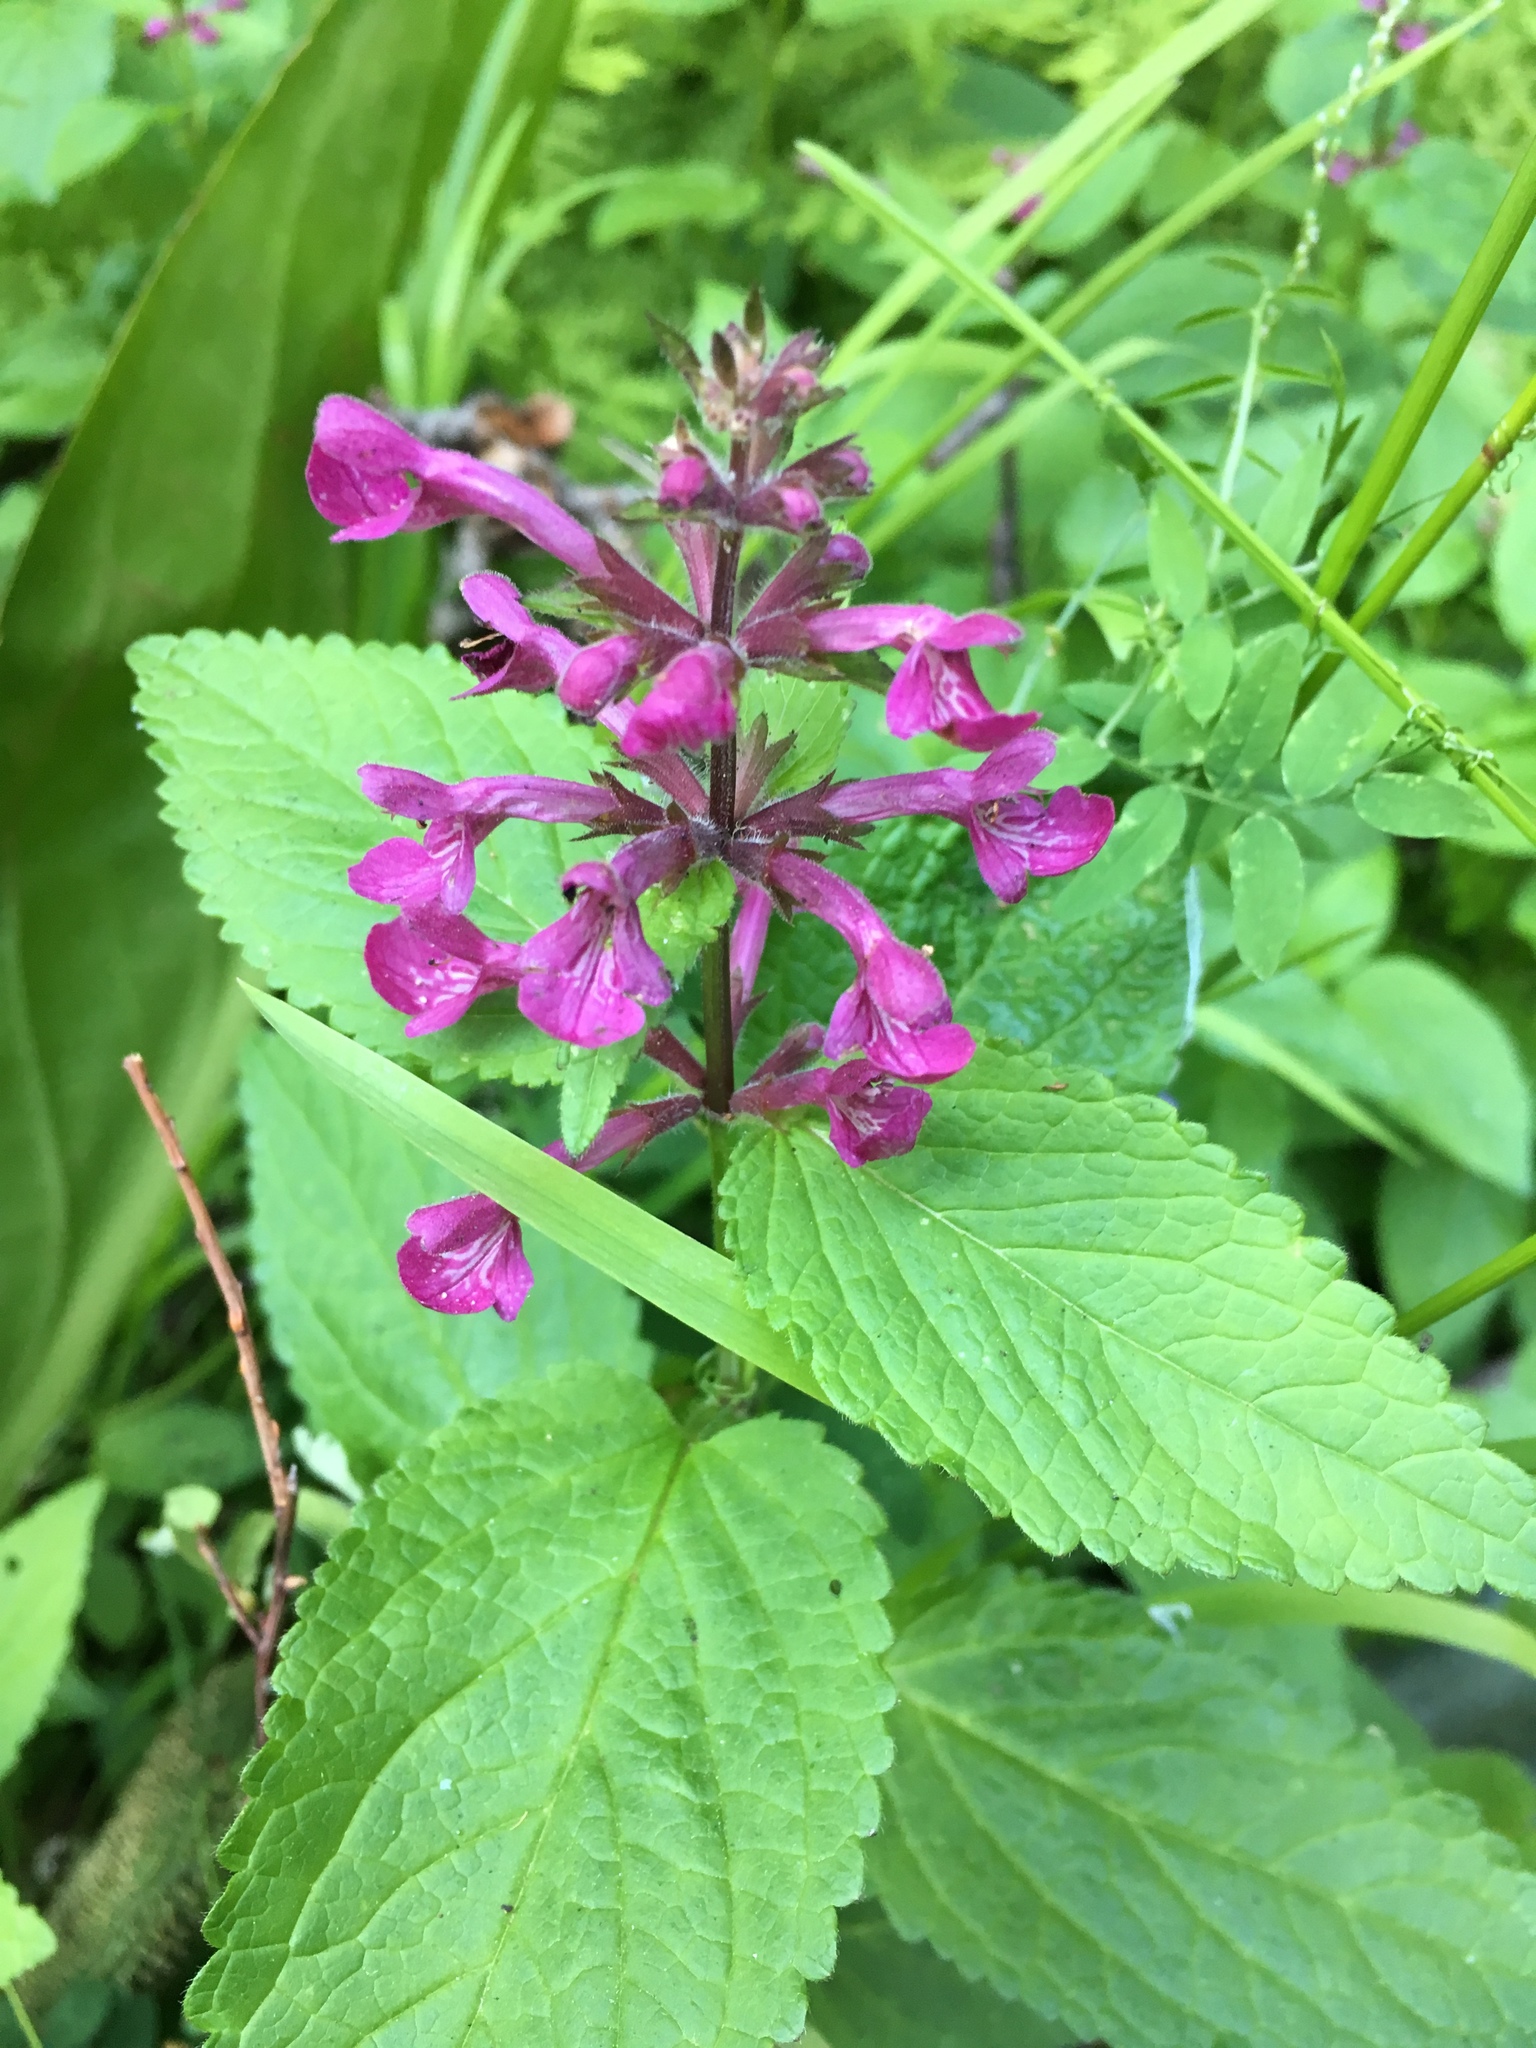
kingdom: Plantae
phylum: Tracheophyta
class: Magnoliopsida
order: Lamiales
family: Lamiaceae
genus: Stachys
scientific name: Stachys chamissonis
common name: Coastal hedge-nettle
